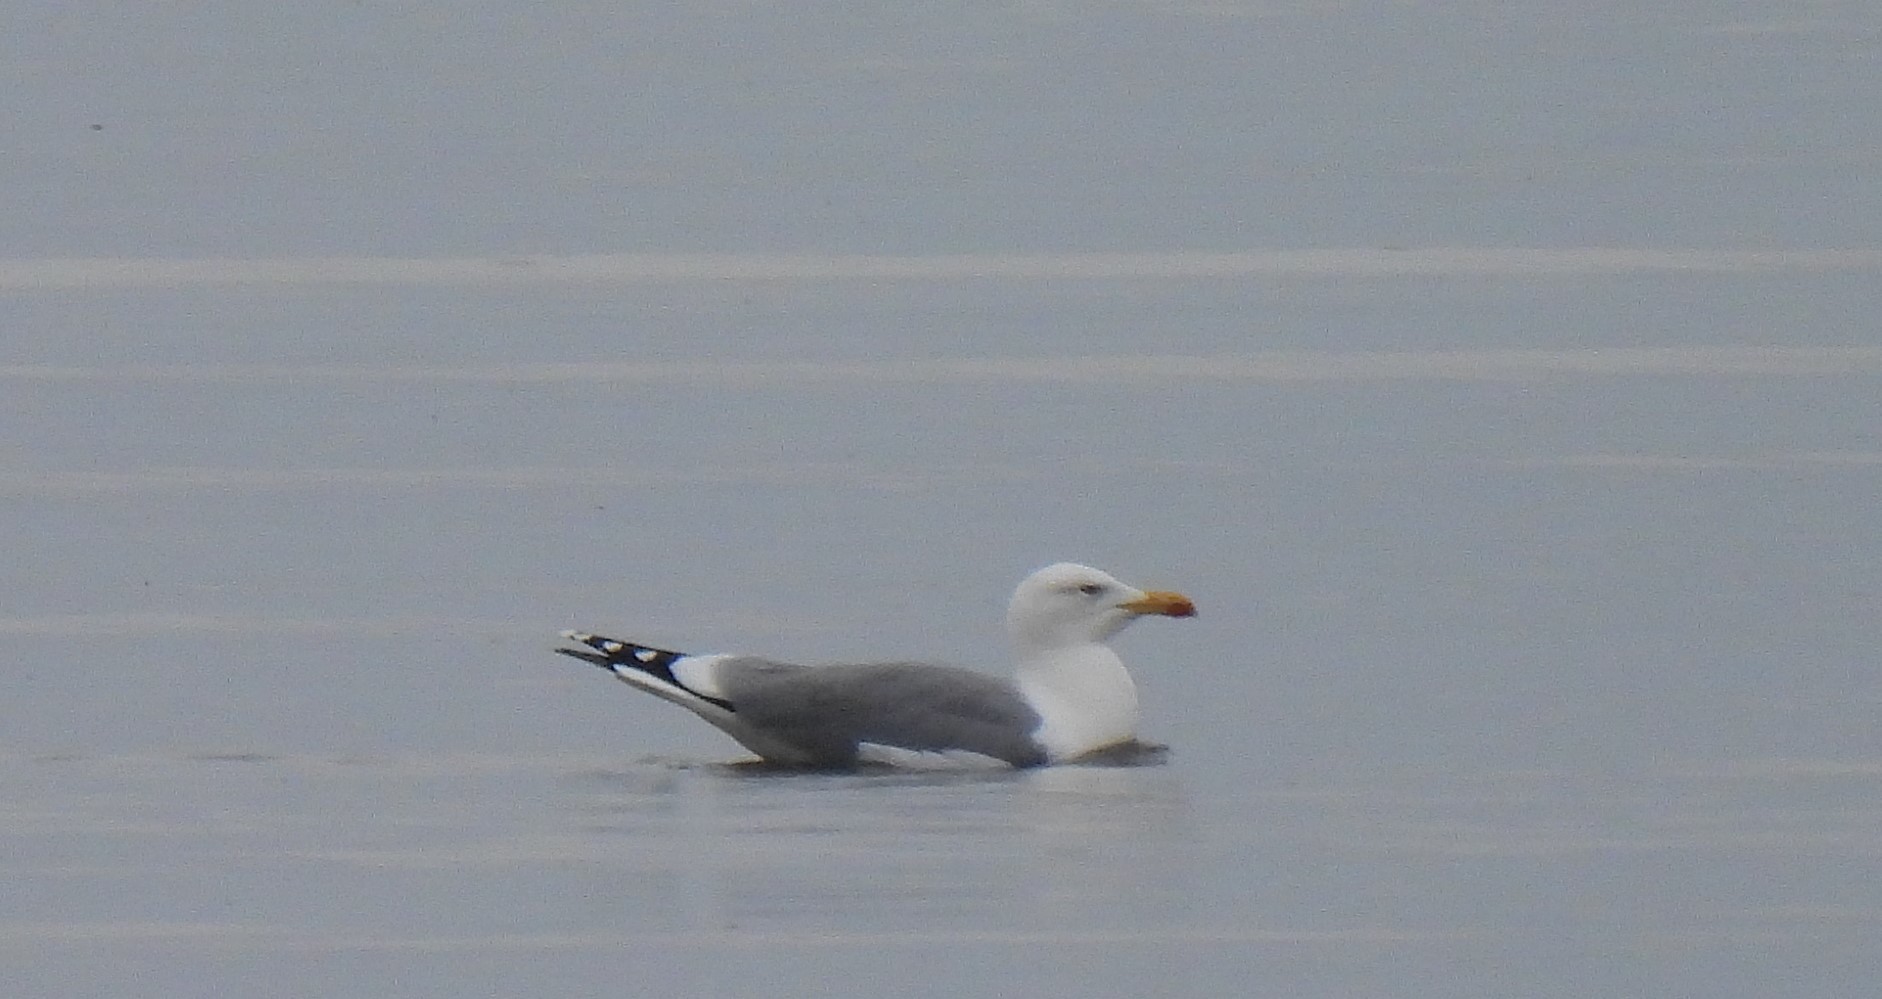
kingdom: Animalia
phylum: Chordata
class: Aves
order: Charadriiformes
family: Laridae
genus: Larus
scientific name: Larus michahellis
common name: Yellow-legged gull
